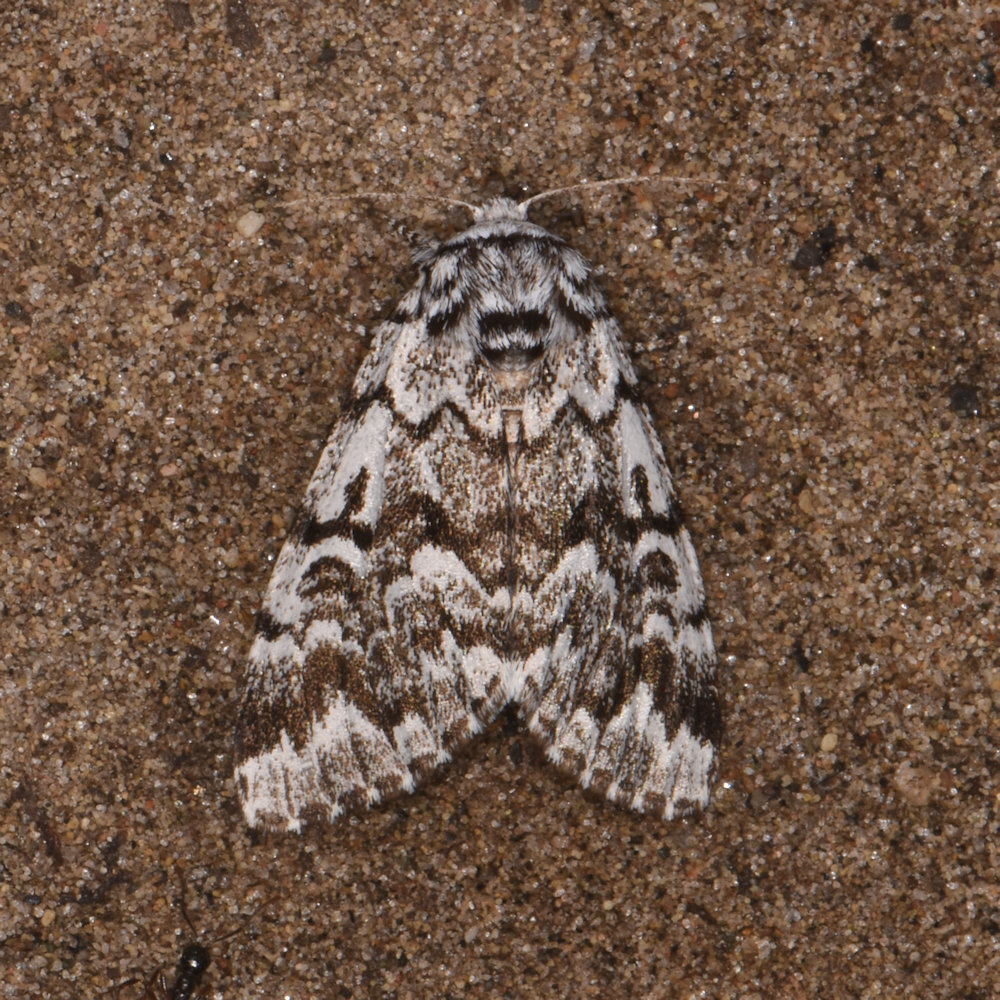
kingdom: Animalia
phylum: Arthropoda
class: Insecta
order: Lepidoptera
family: Noctuidae
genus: Panthea
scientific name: Panthea acronyctoides
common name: Black zigzag moth
